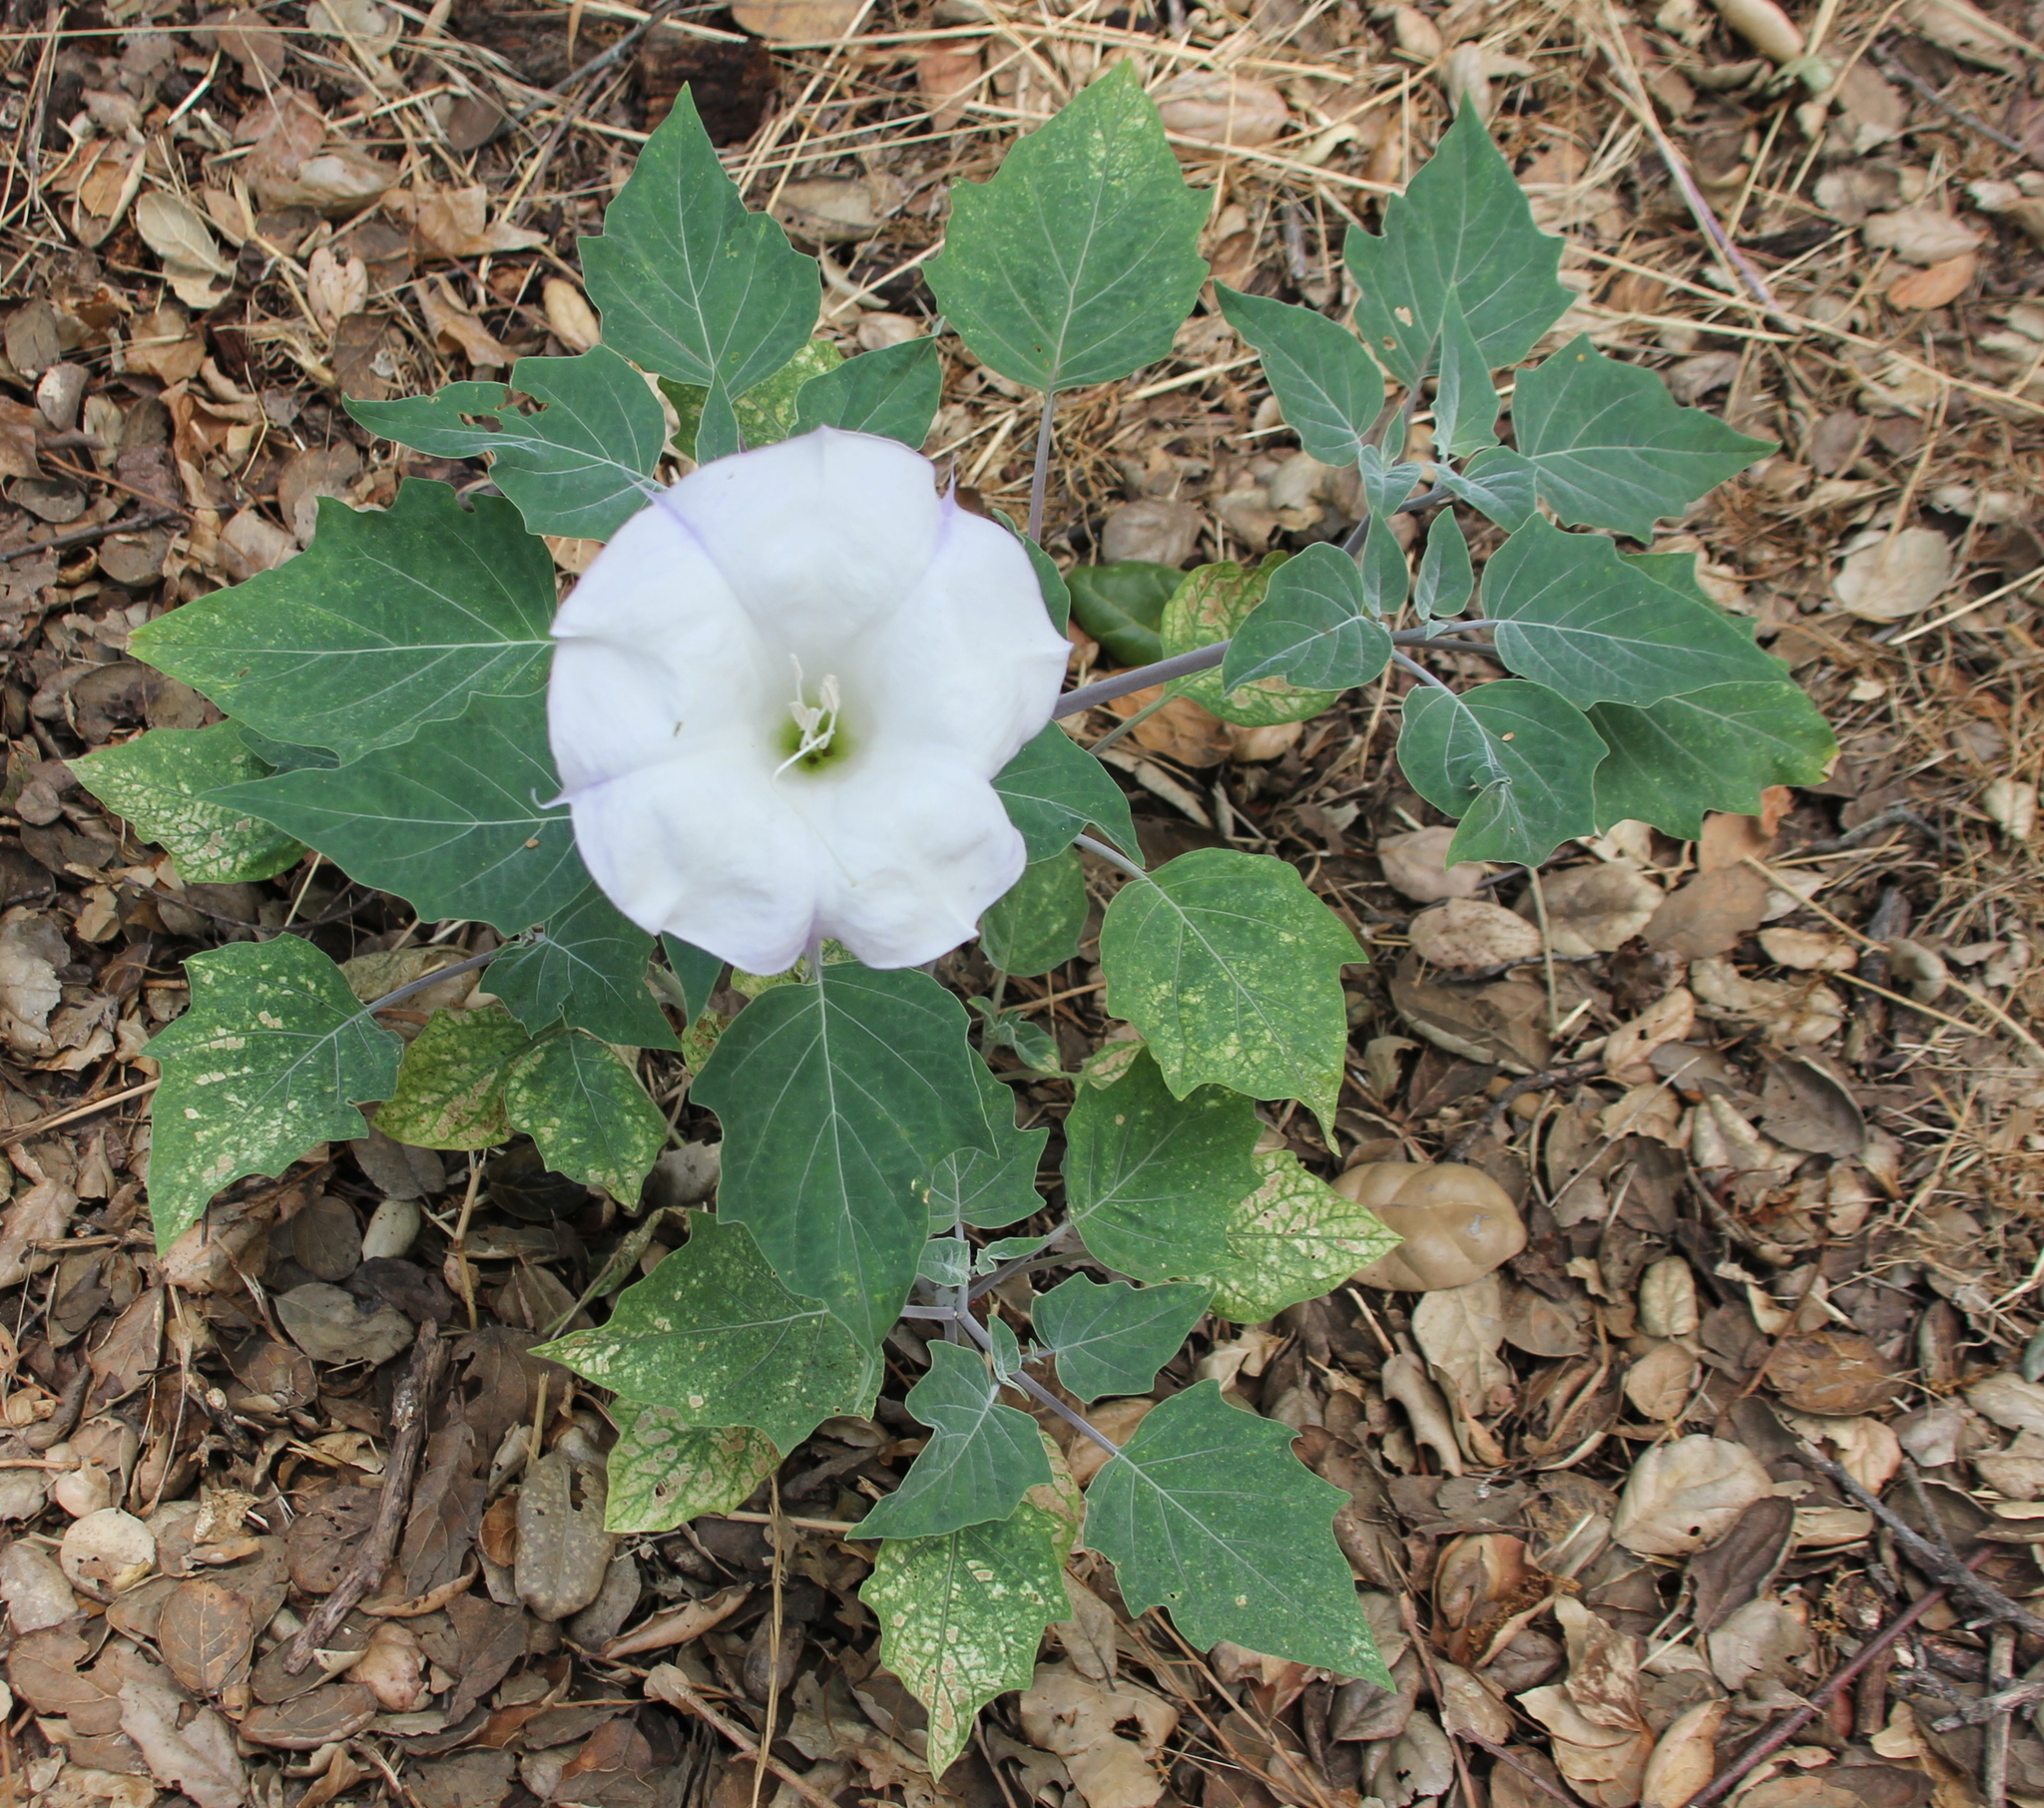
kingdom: Plantae
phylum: Tracheophyta
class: Magnoliopsida
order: Solanales
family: Solanaceae
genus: Datura
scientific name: Datura wrightii
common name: Sacred thorn-apple
